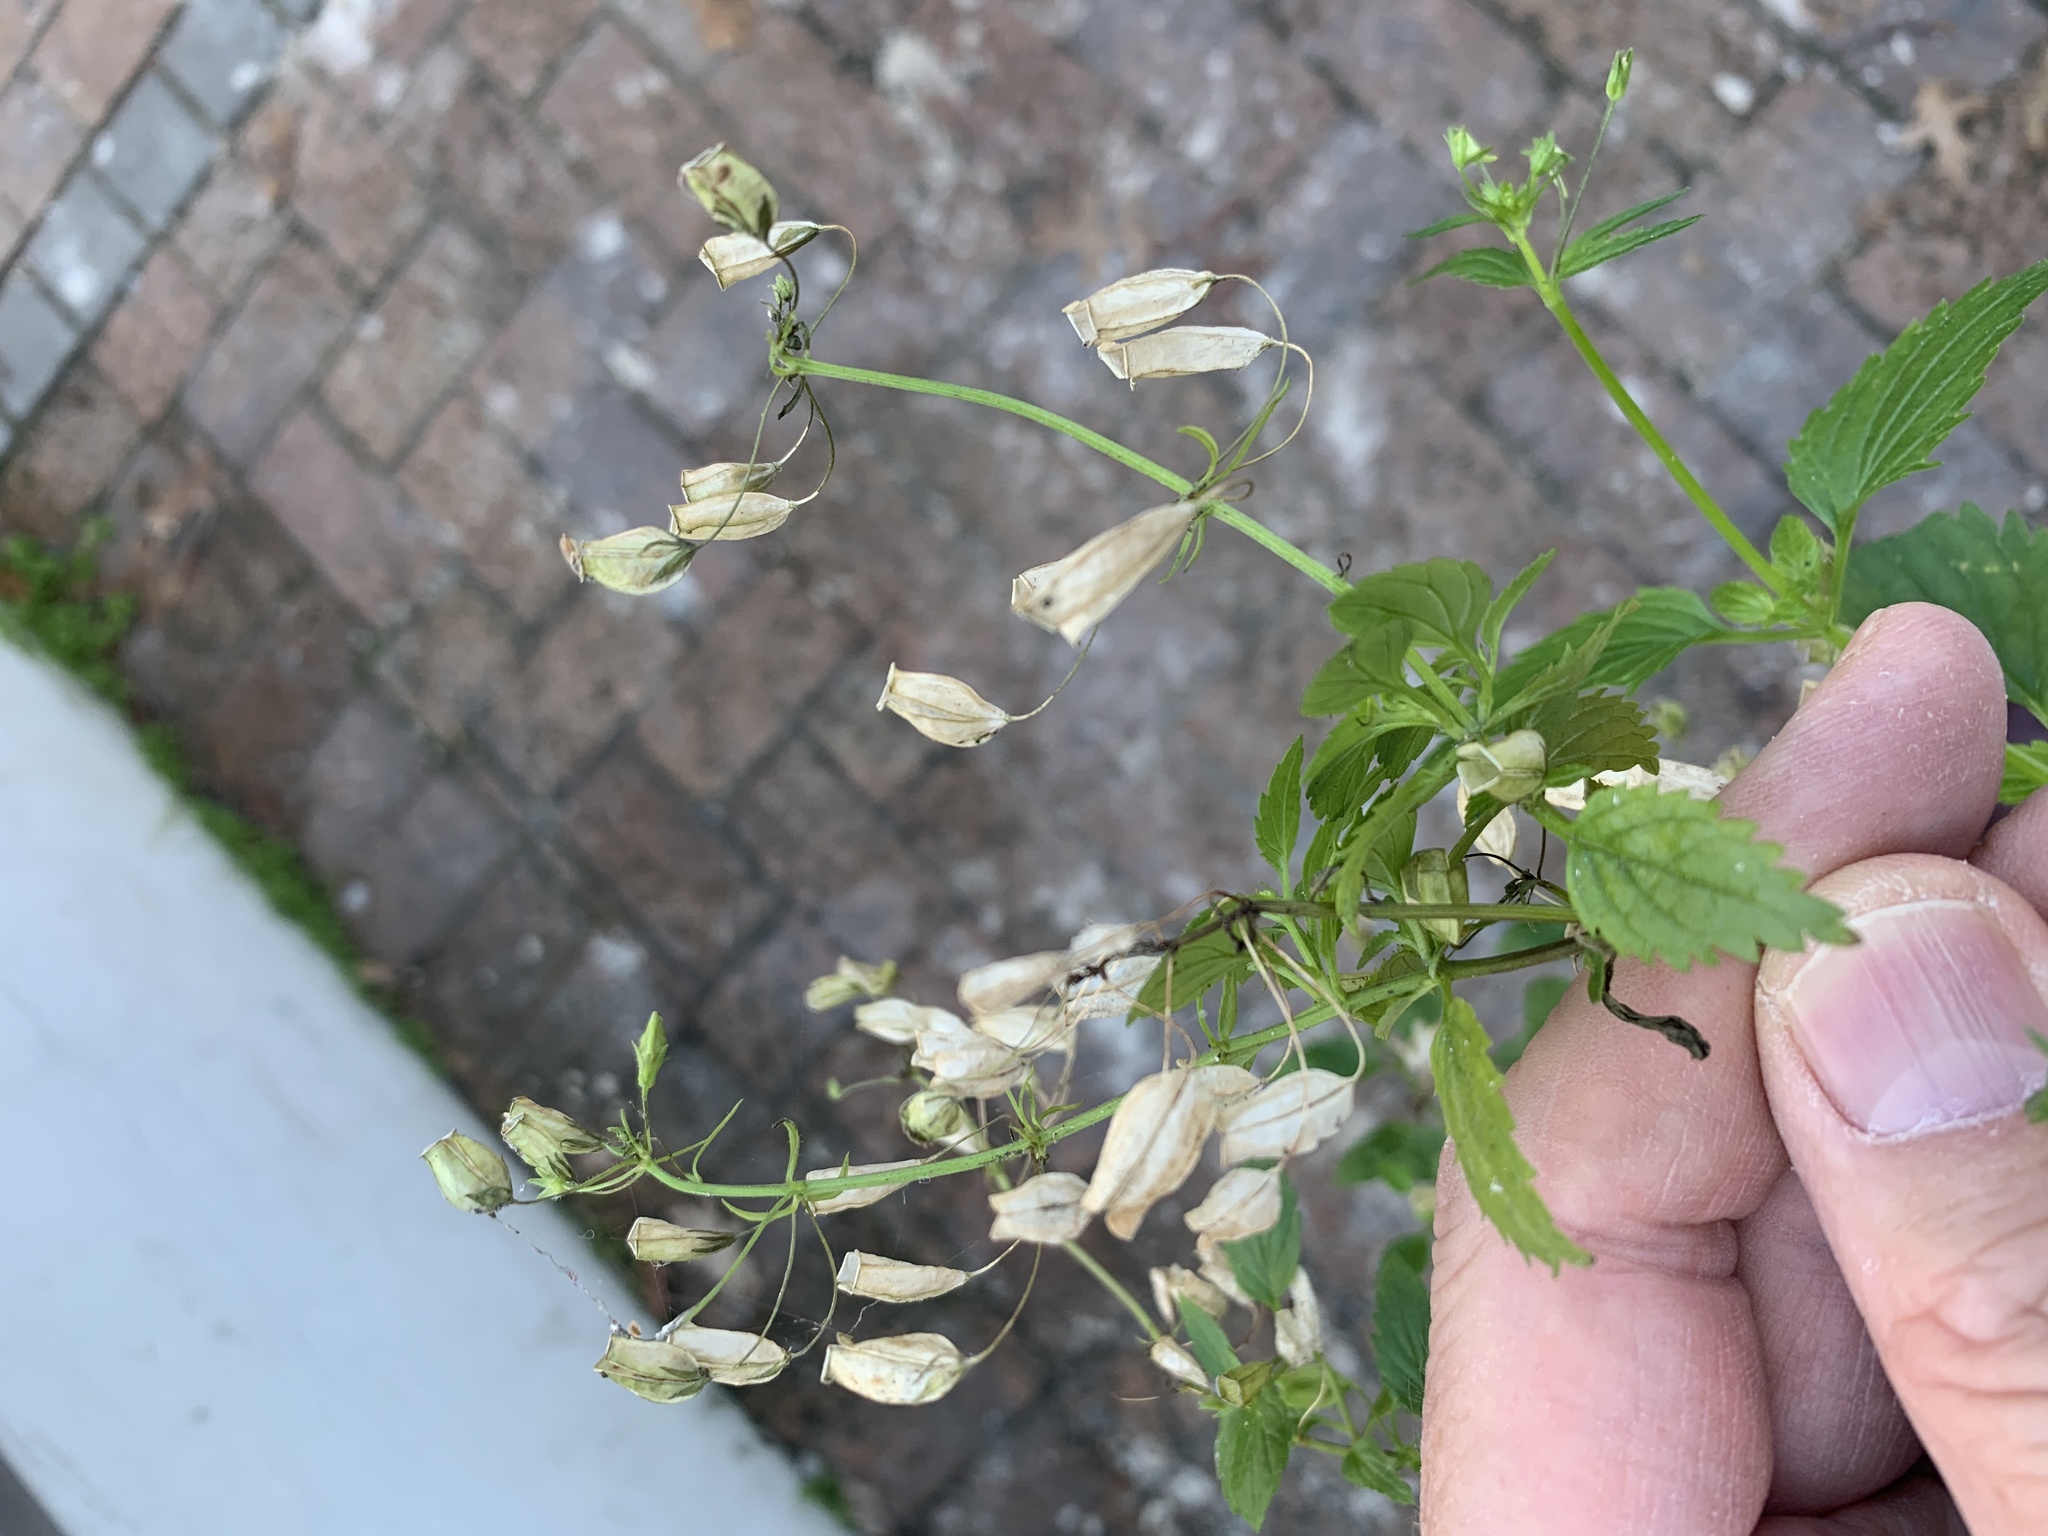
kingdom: Plantae
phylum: Tracheophyta
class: Magnoliopsida
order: Lamiales
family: Scrophulariaceae
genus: Nemesia
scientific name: Nemesia floribunda
